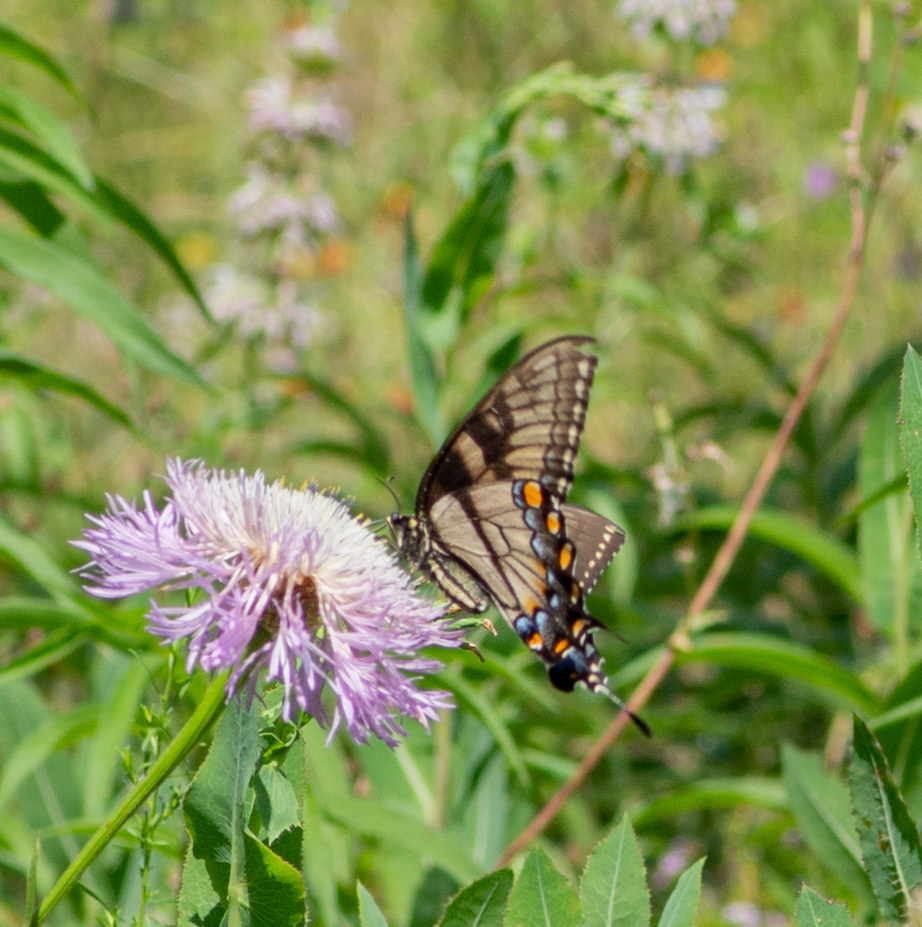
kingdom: Animalia
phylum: Arthropoda
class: Insecta
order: Lepidoptera
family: Papilionidae
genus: Papilio
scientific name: Papilio glaucus
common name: Tiger swallowtail
